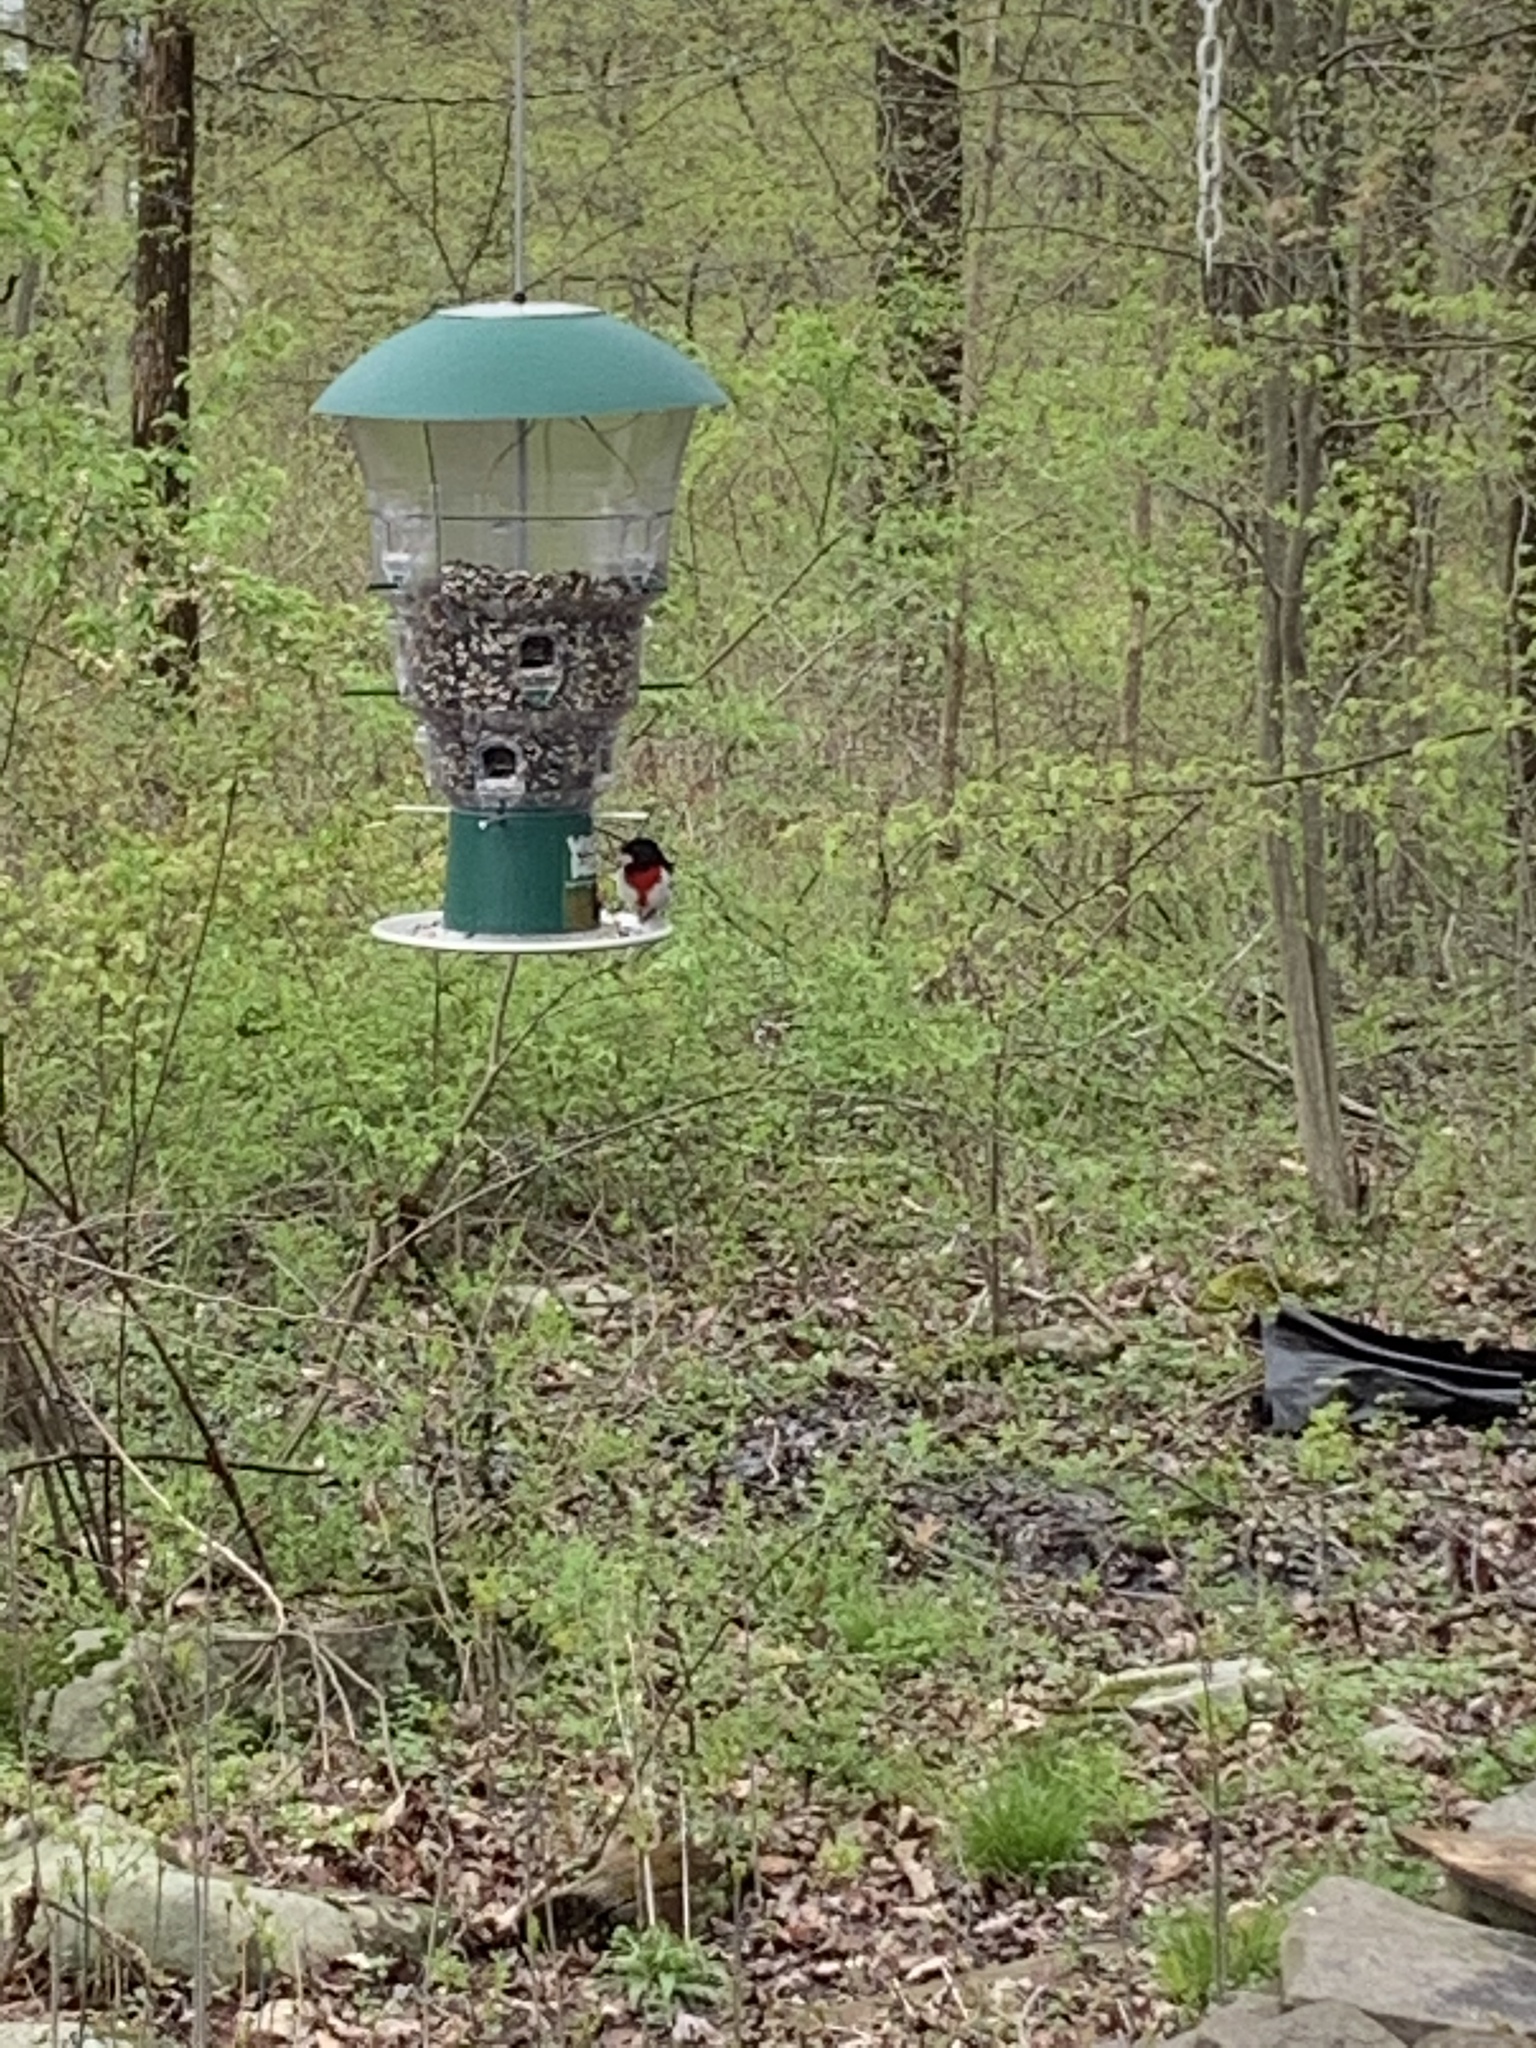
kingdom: Animalia
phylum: Chordata
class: Aves
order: Passeriformes
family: Cardinalidae
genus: Pheucticus
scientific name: Pheucticus ludovicianus
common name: Rose-breasted grosbeak
